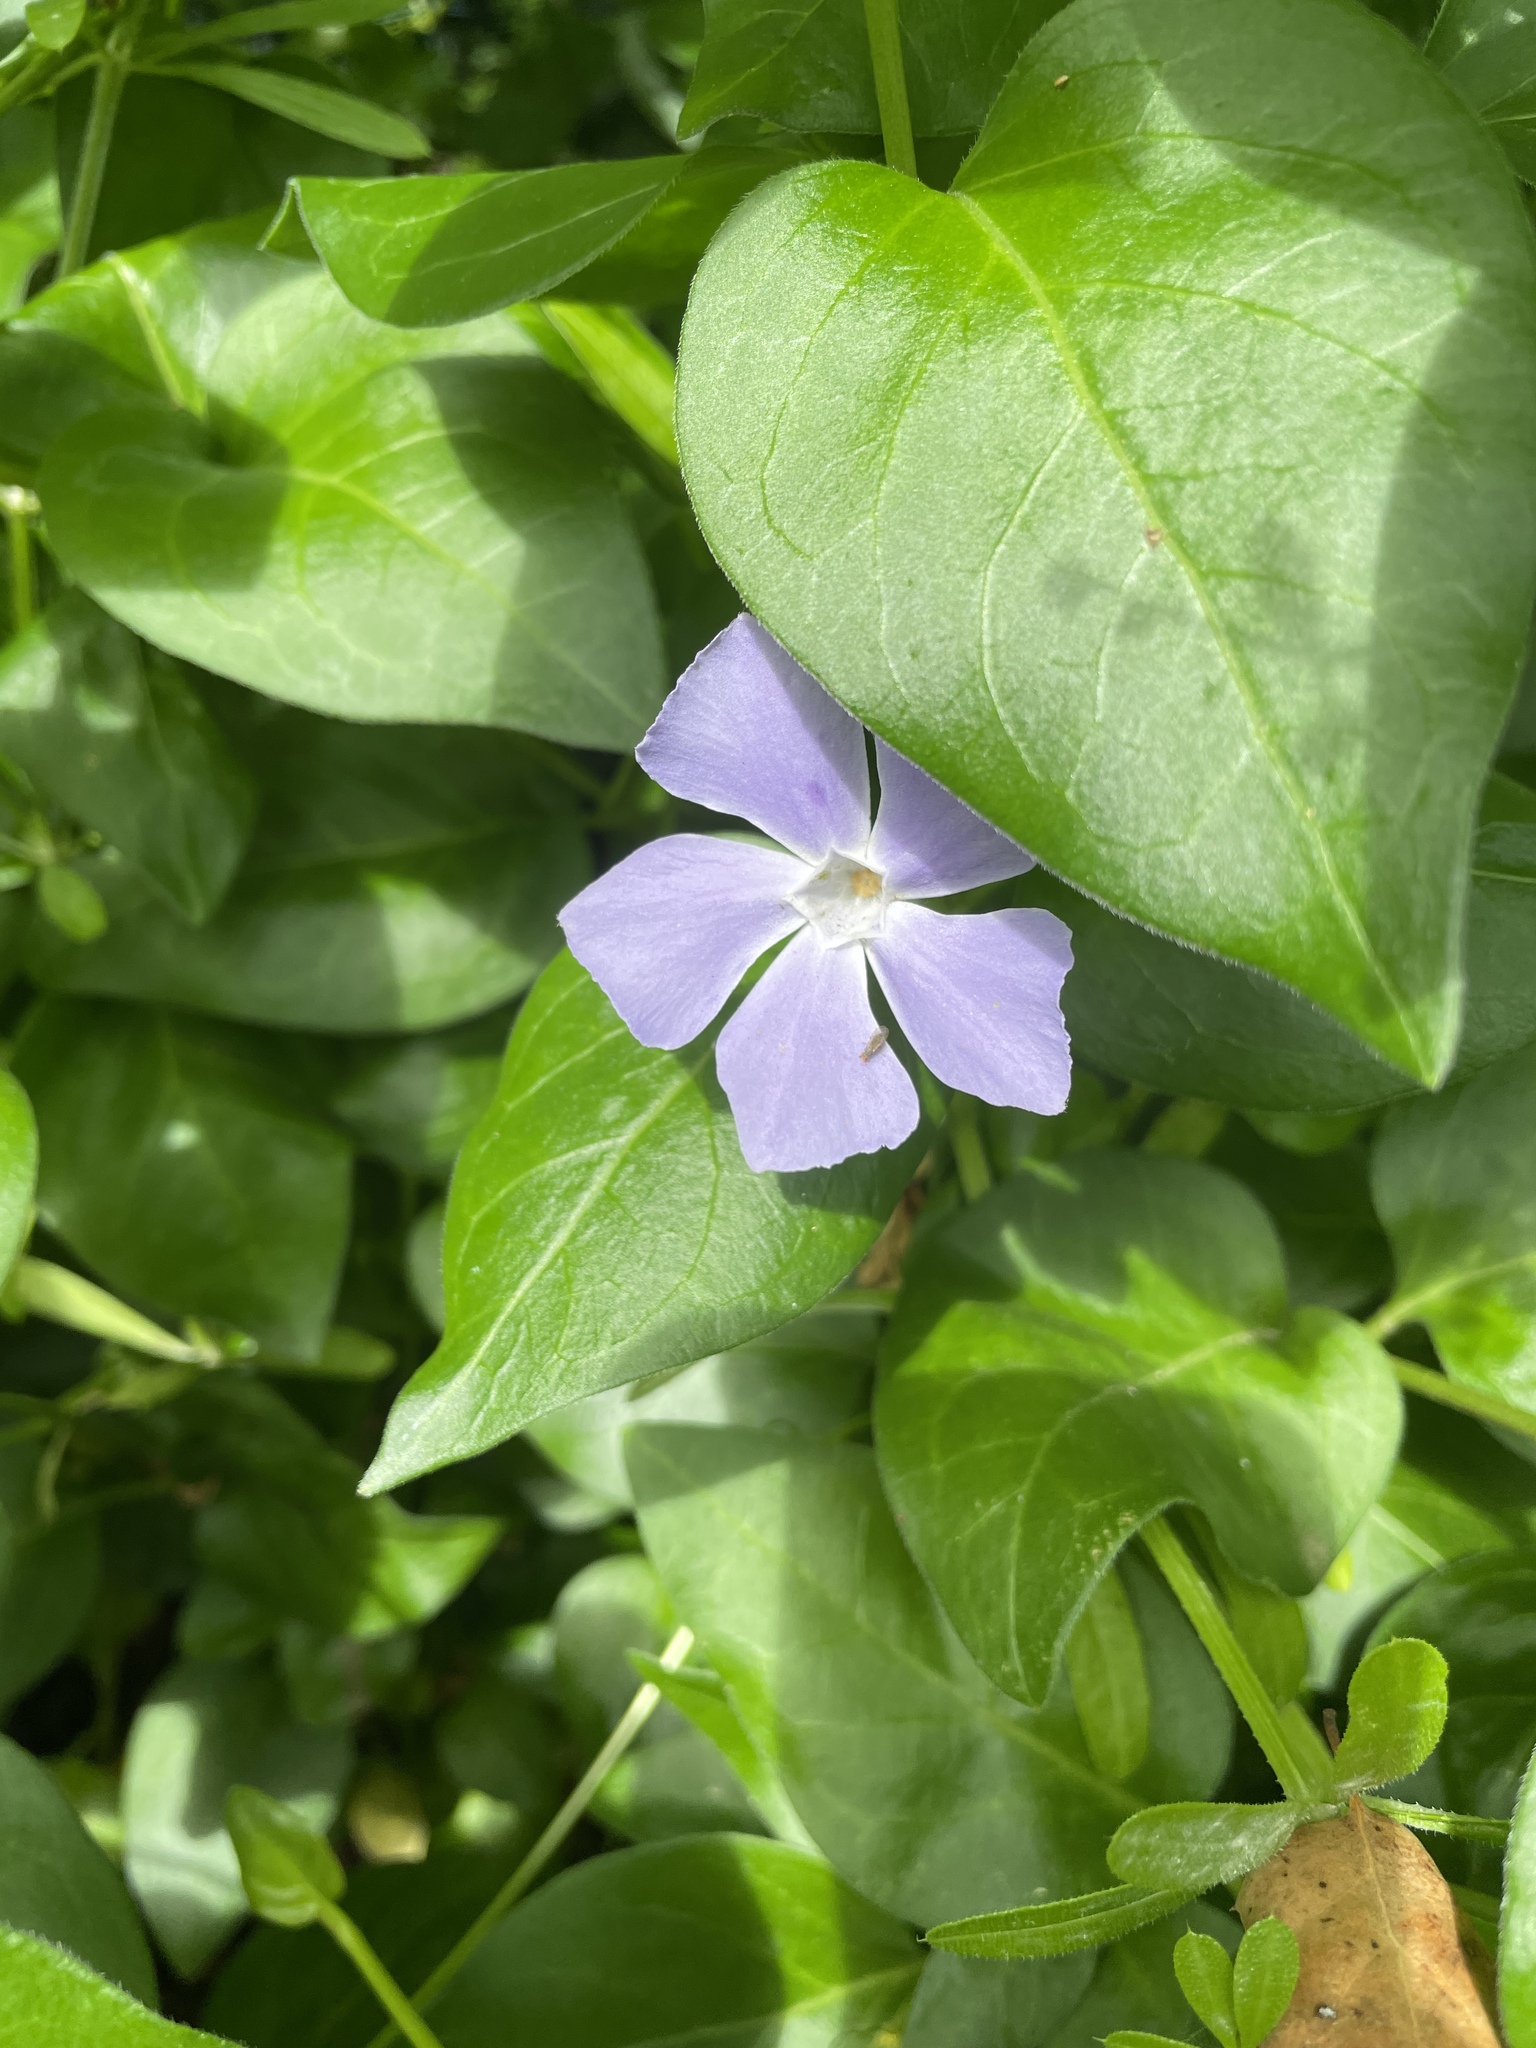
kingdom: Plantae
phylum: Tracheophyta
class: Magnoliopsida
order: Gentianales
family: Apocynaceae
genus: Vinca
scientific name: Vinca major
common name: Greater periwinkle
